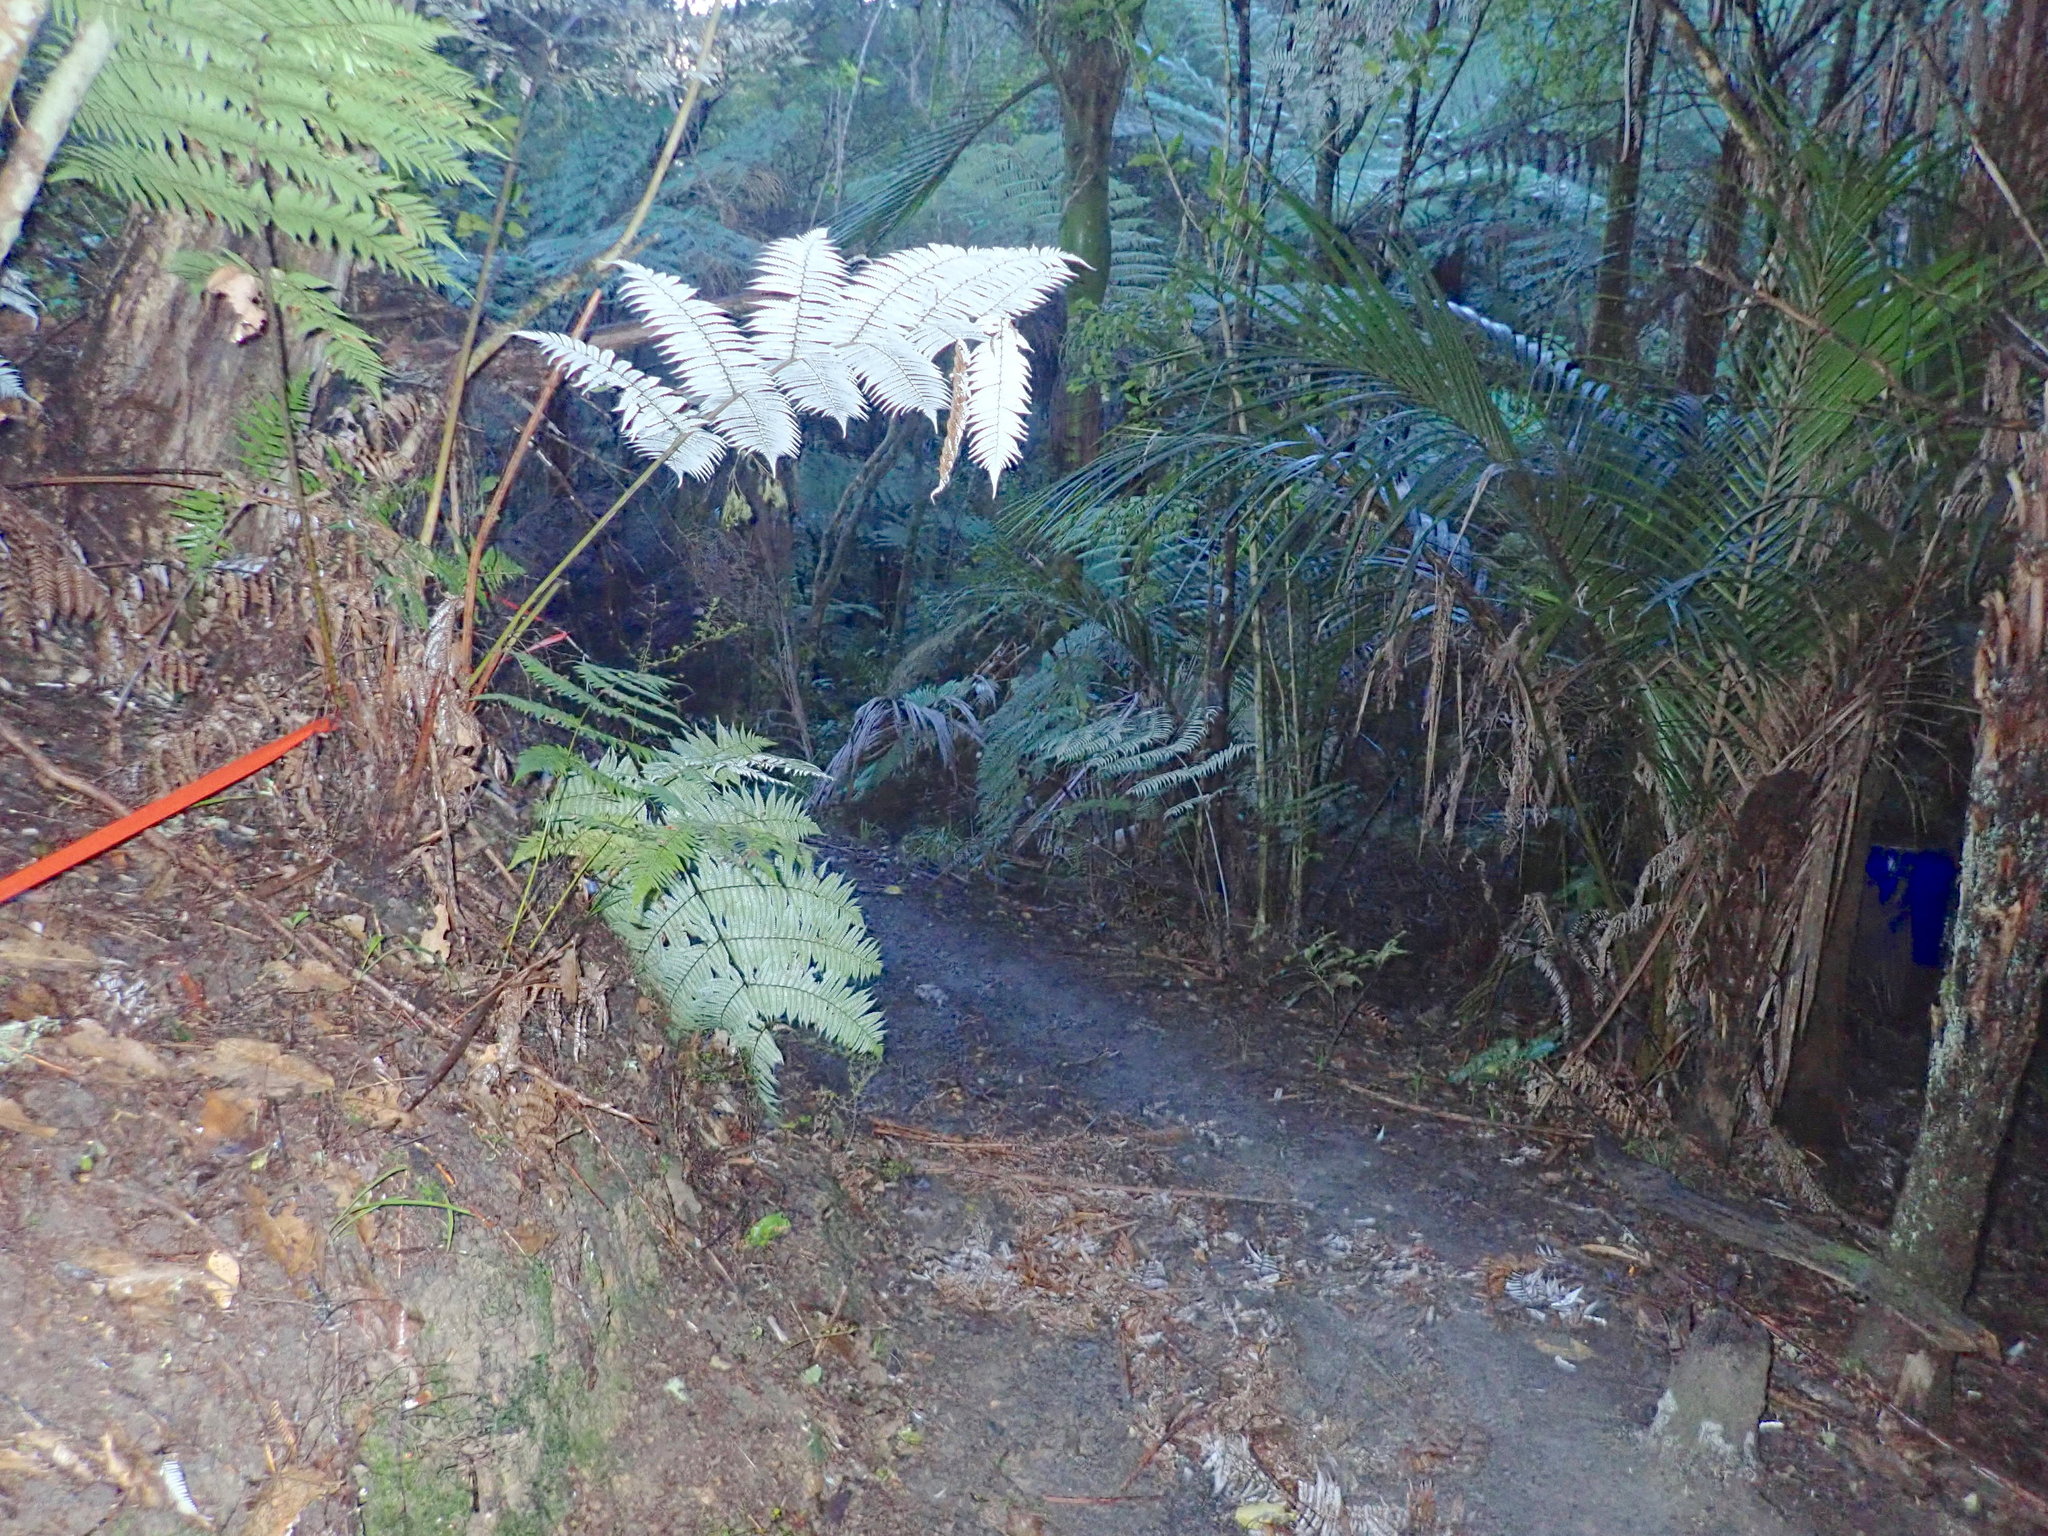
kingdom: Plantae
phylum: Tracheophyta
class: Polypodiopsida
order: Cyatheales
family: Cyatheaceae
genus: Alsophila
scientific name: Alsophila dealbata
